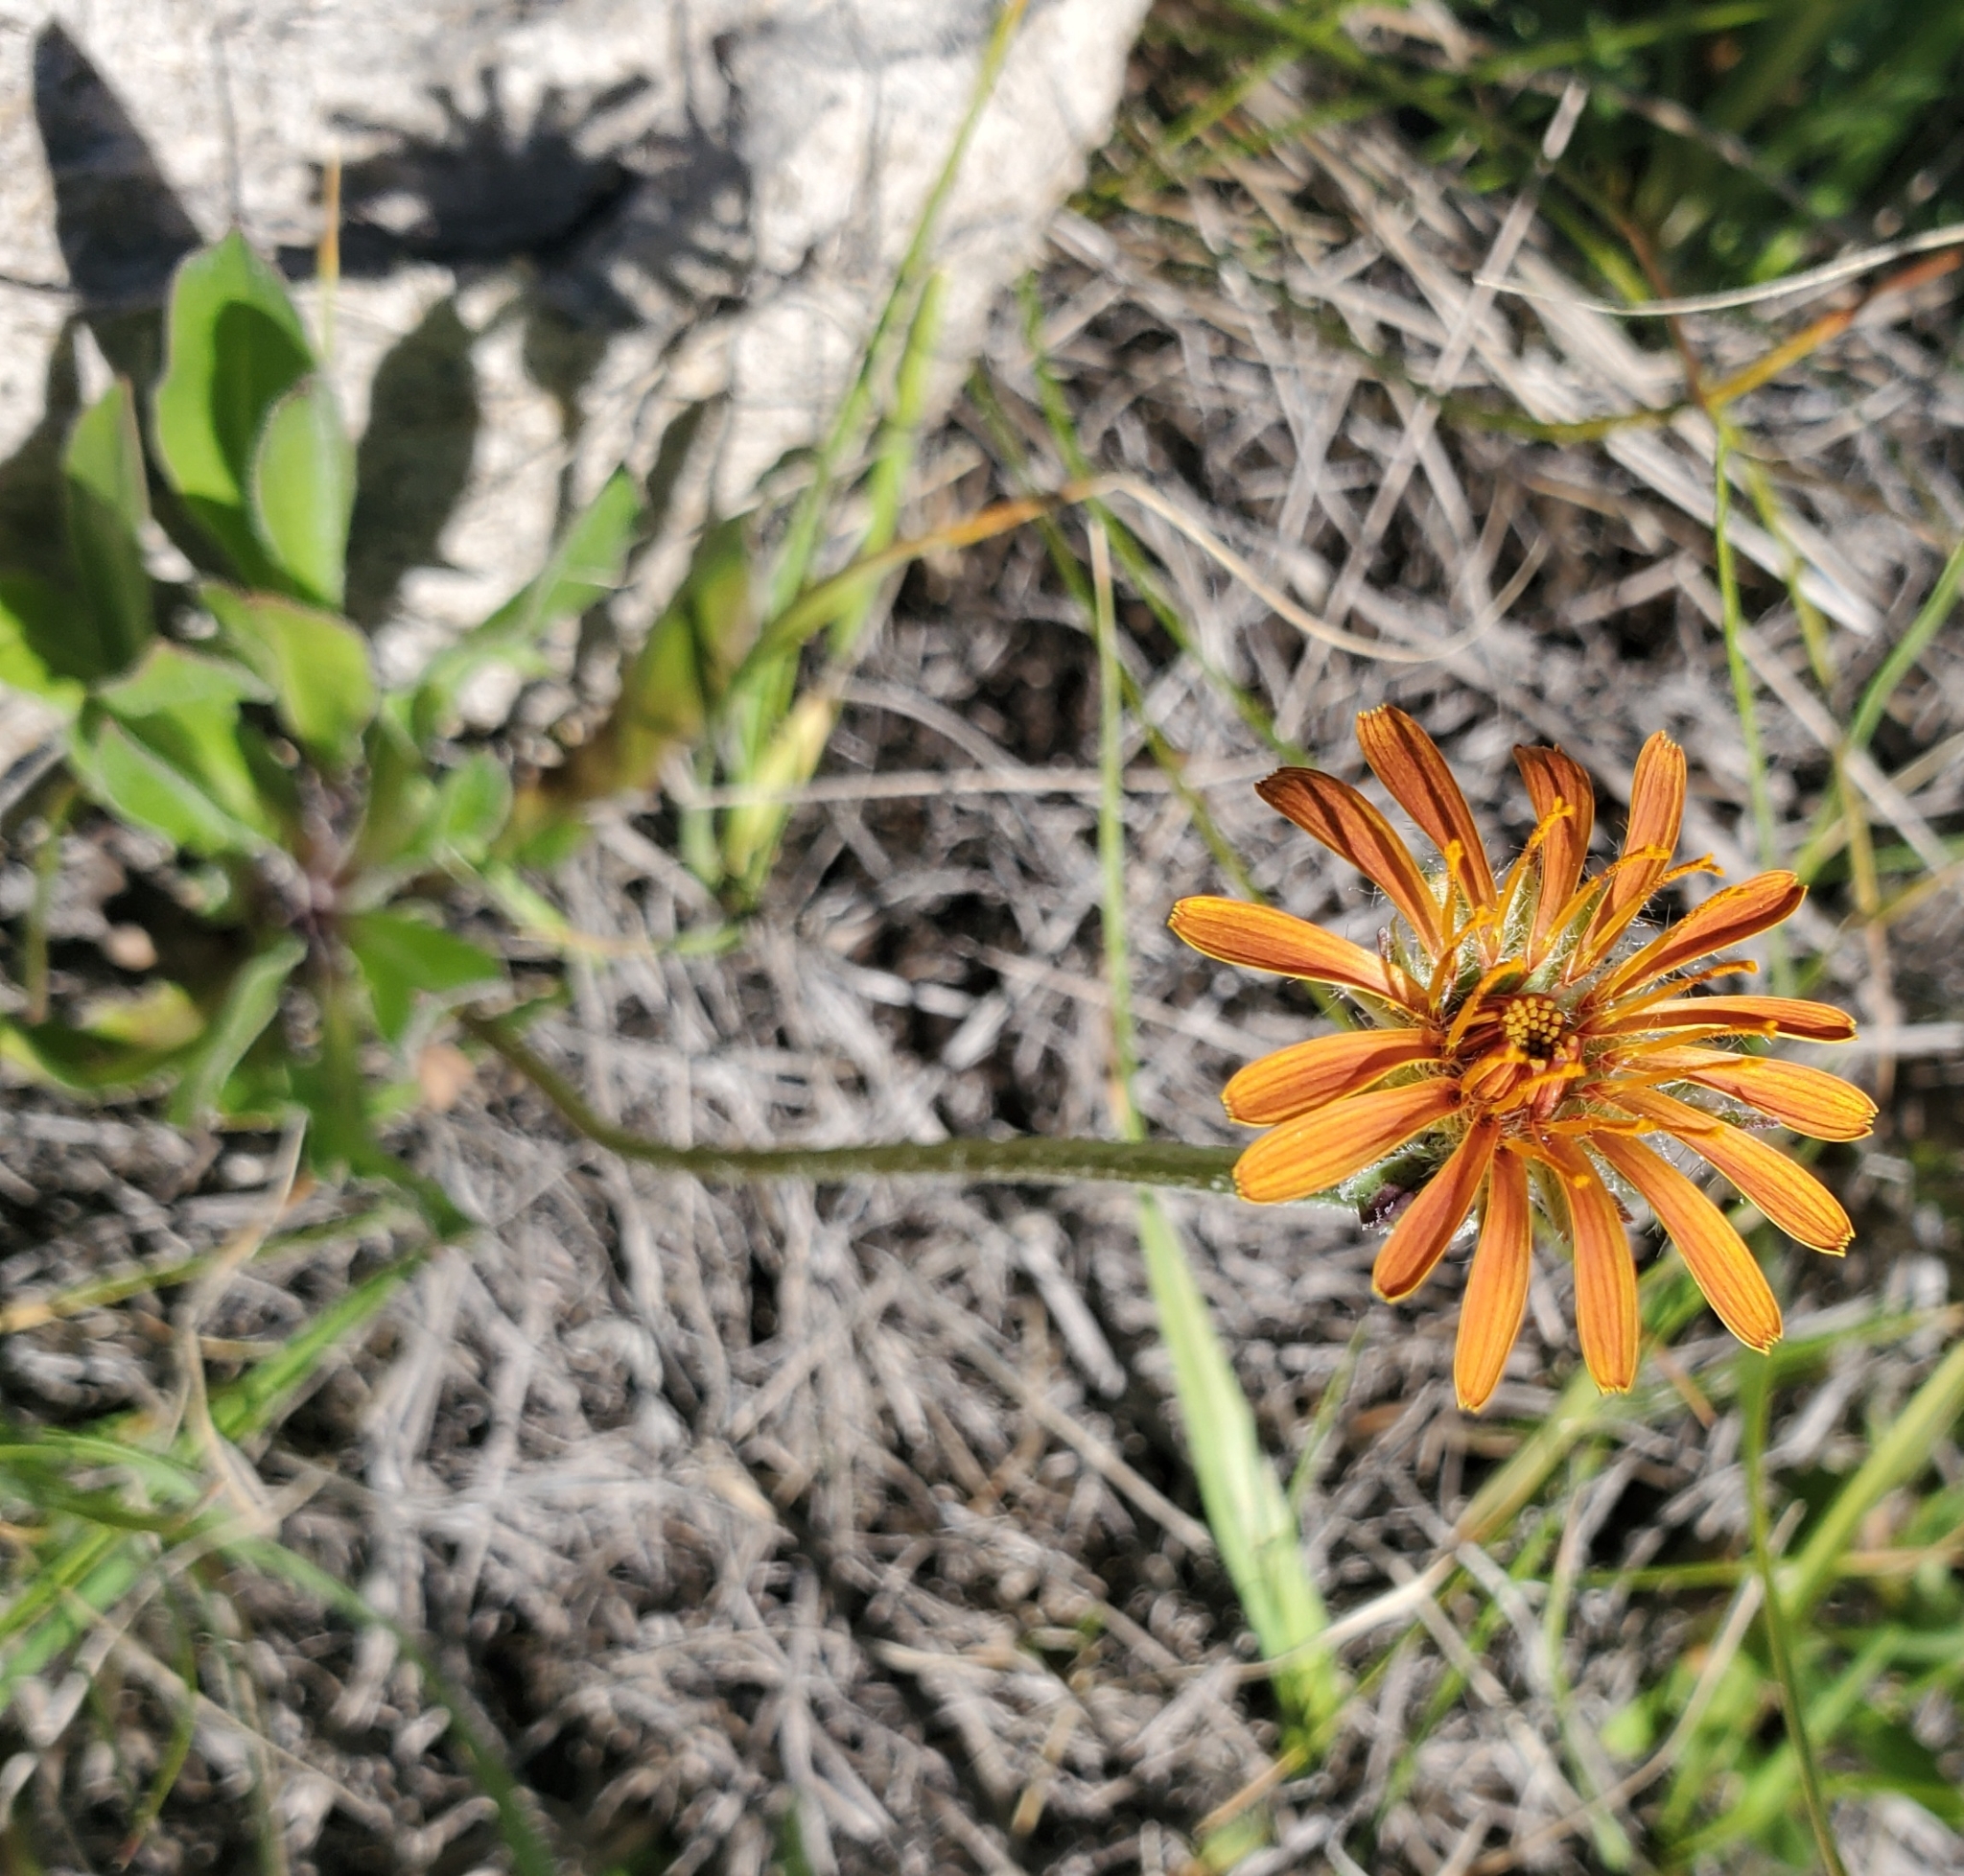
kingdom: Plantae
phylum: Tracheophyta
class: Magnoliopsida
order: Asterales
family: Asteraceae
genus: Agoseris
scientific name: Agoseris aurantiaca
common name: Mountain agoseris
